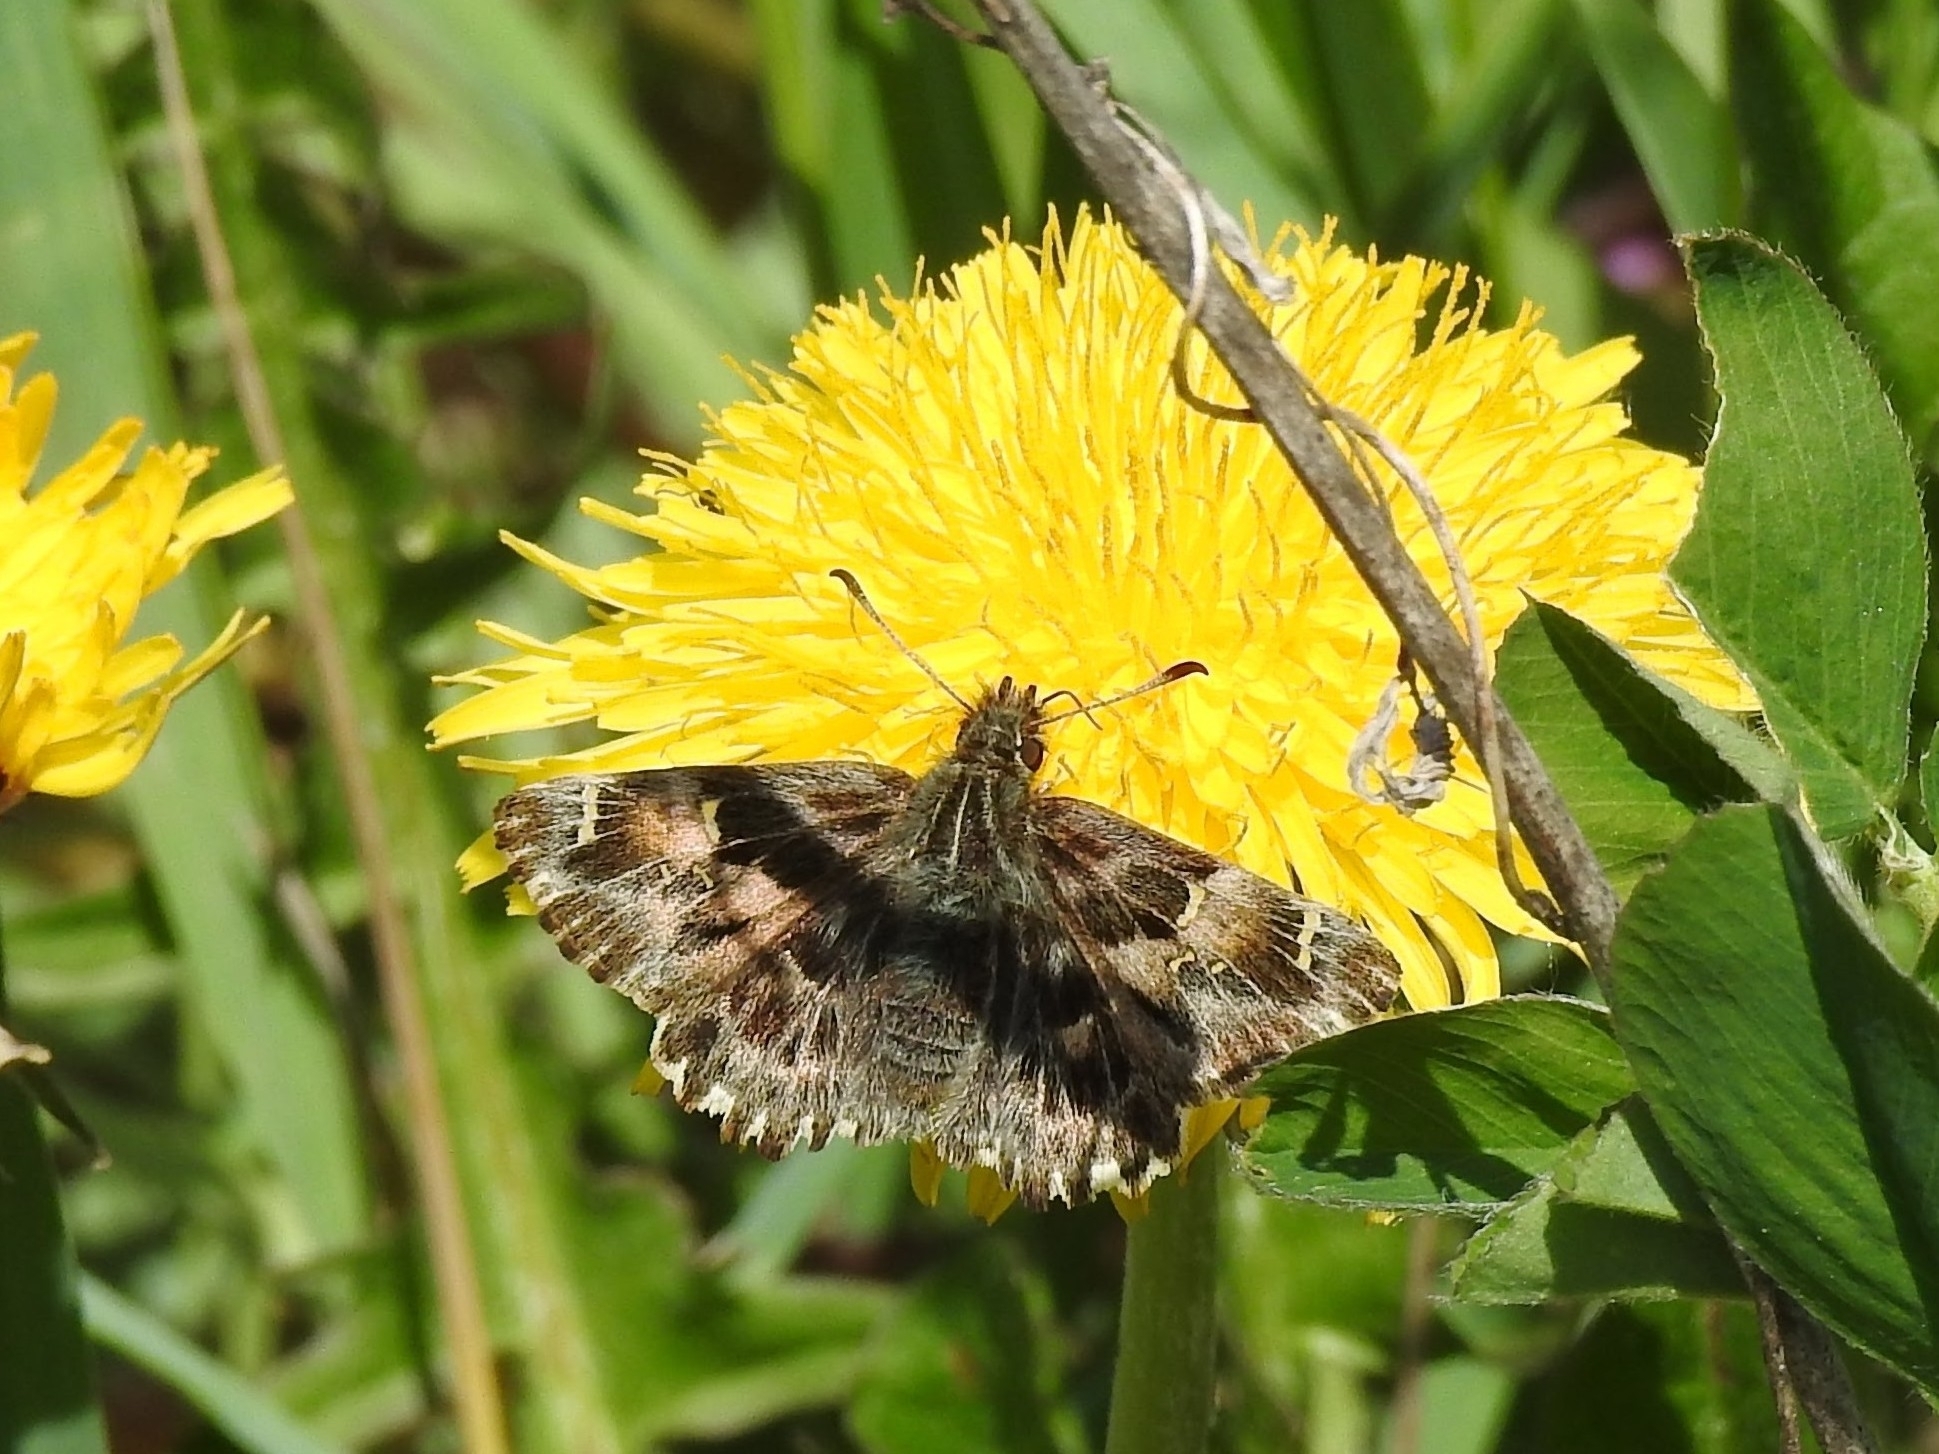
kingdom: Animalia
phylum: Arthropoda
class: Insecta
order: Lepidoptera
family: Hesperiidae
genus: Carcharodus
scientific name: Carcharodus alceae
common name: Mallow skipper
